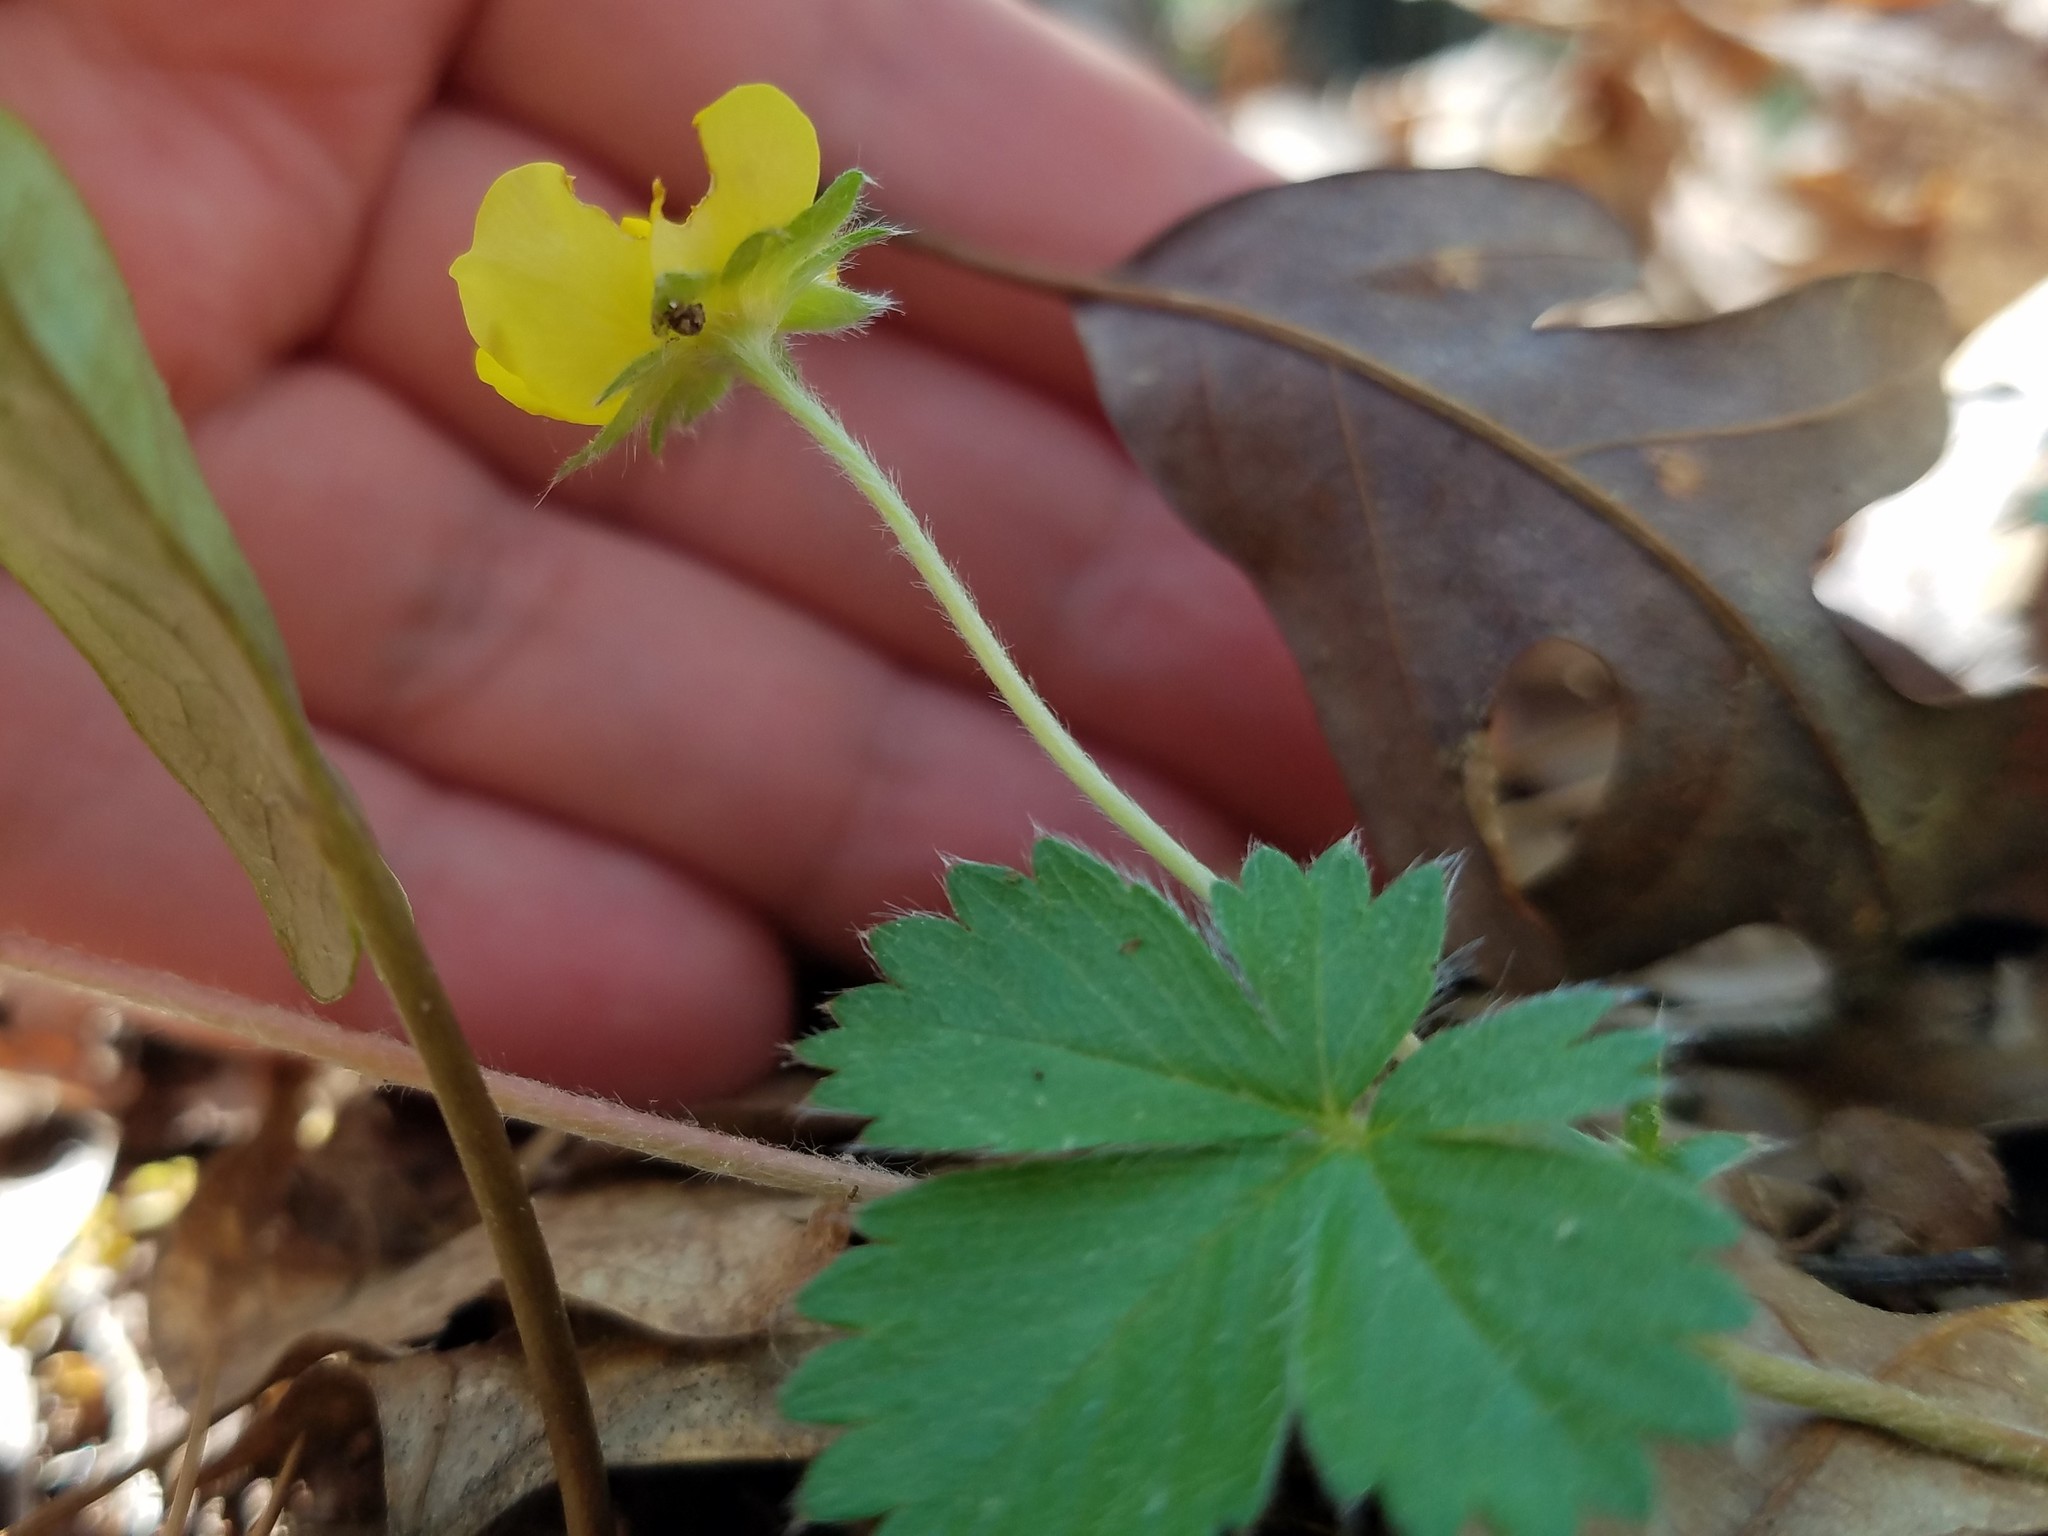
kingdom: Plantae
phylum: Tracheophyta
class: Magnoliopsida
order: Rosales
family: Rosaceae
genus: Potentilla
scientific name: Potentilla canadensis
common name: Canada cinquefoil
